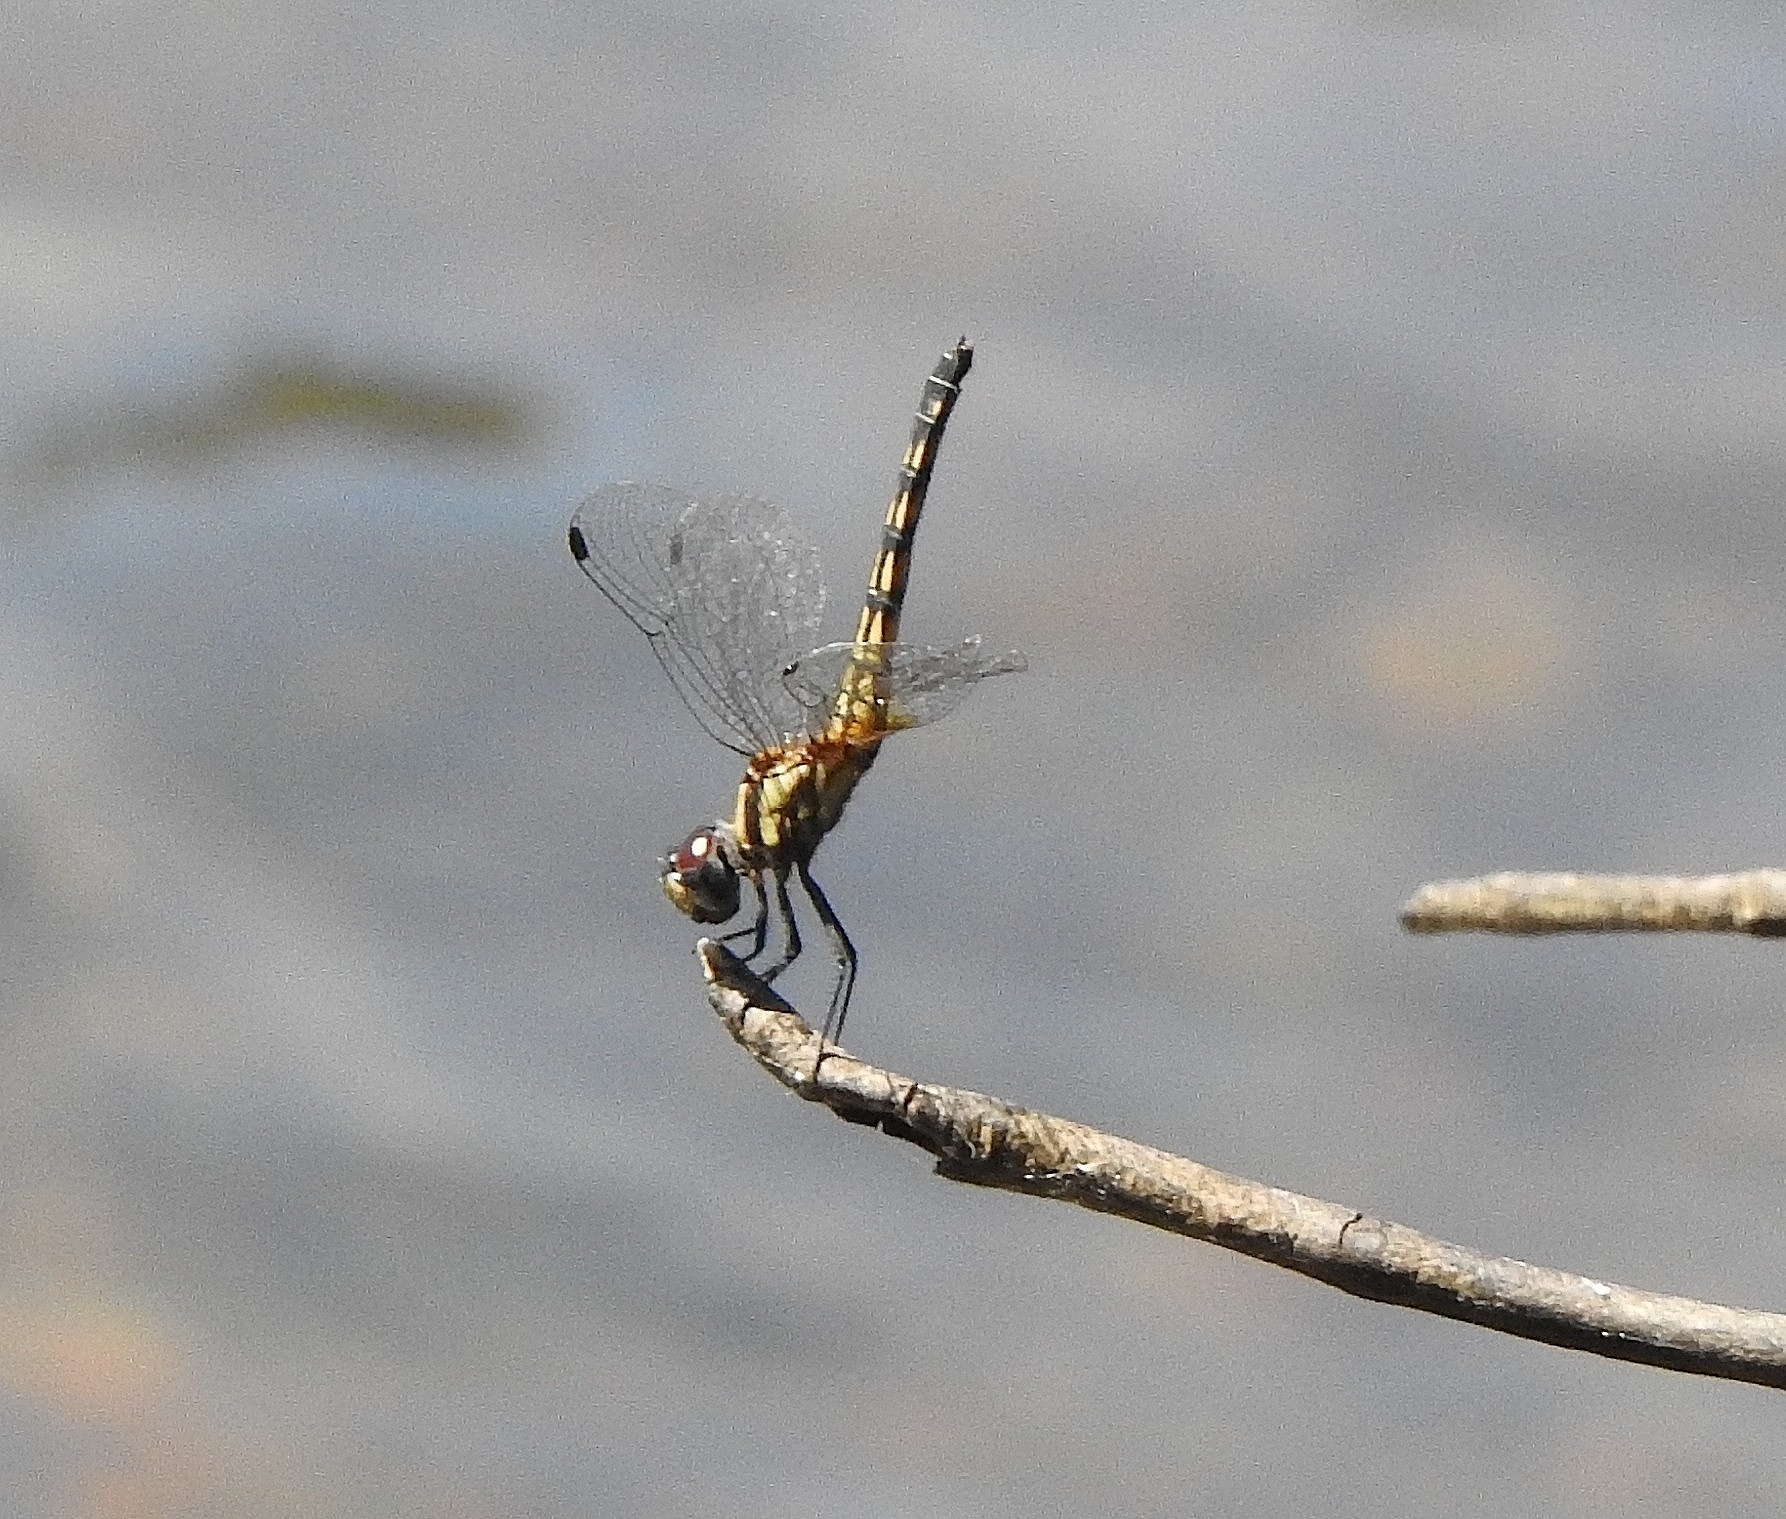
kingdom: Animalia
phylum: Arthropoda
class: Insecta
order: Odonata
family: Libellulidae
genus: Trithemis
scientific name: Trithemis festiva
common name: Indigo dropwing
